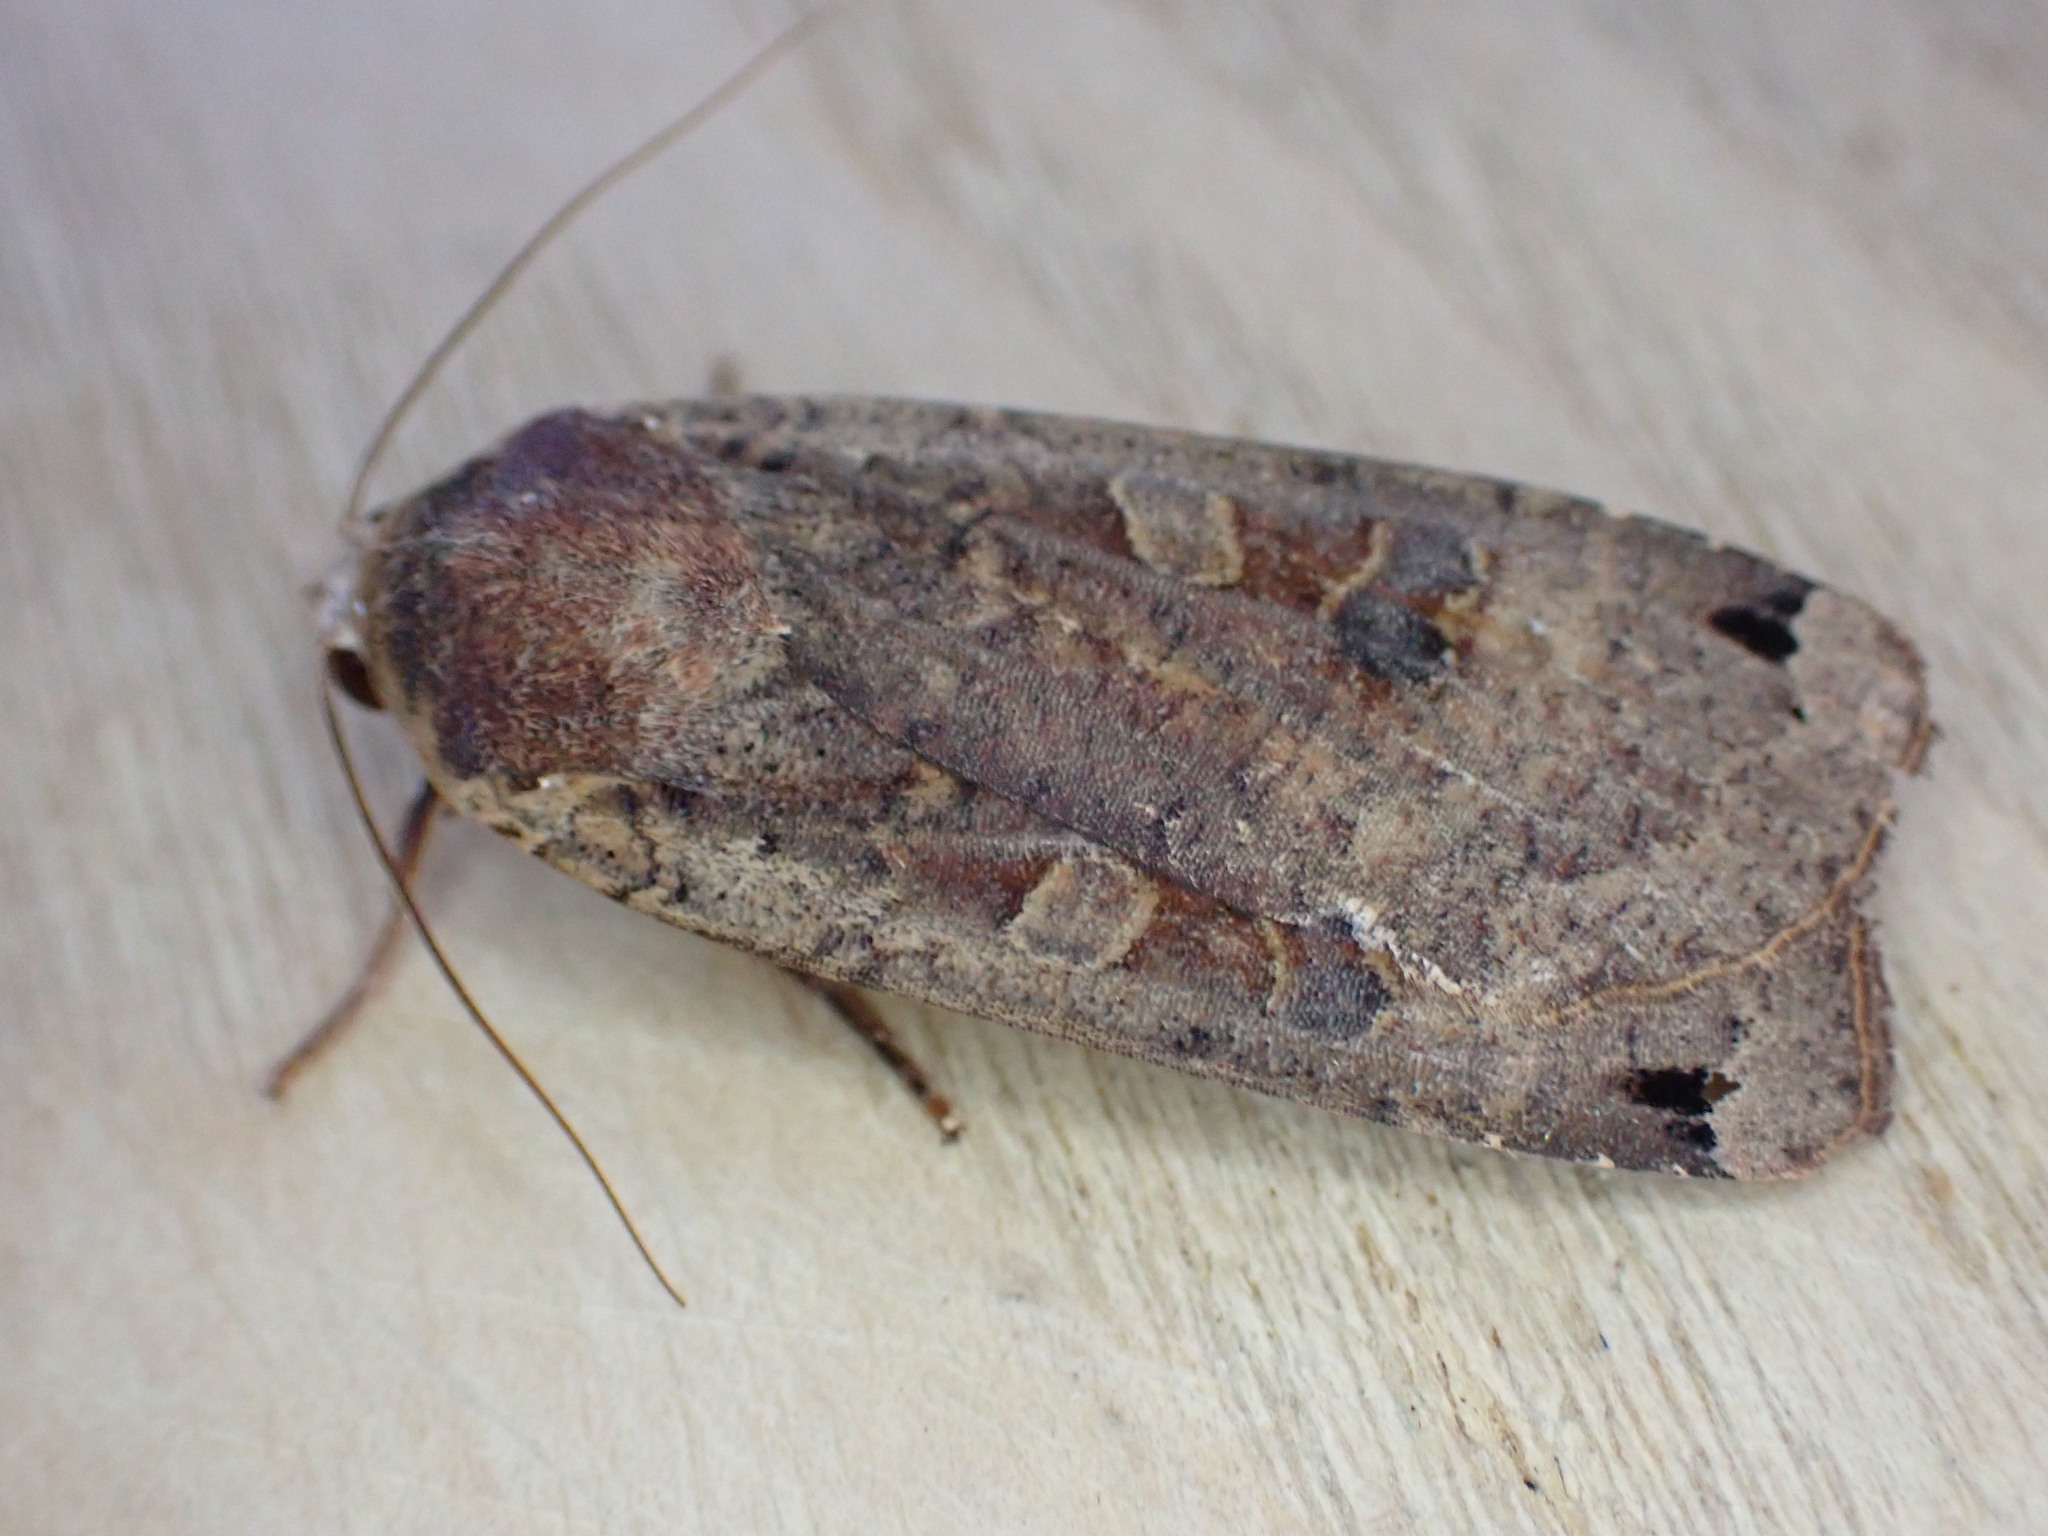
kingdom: Animalia
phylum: Arthropoda
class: Insecta
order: Lepidoptera
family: Noctuidae
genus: Noctua
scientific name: Noctua pronuba
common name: Large yellow underwing
